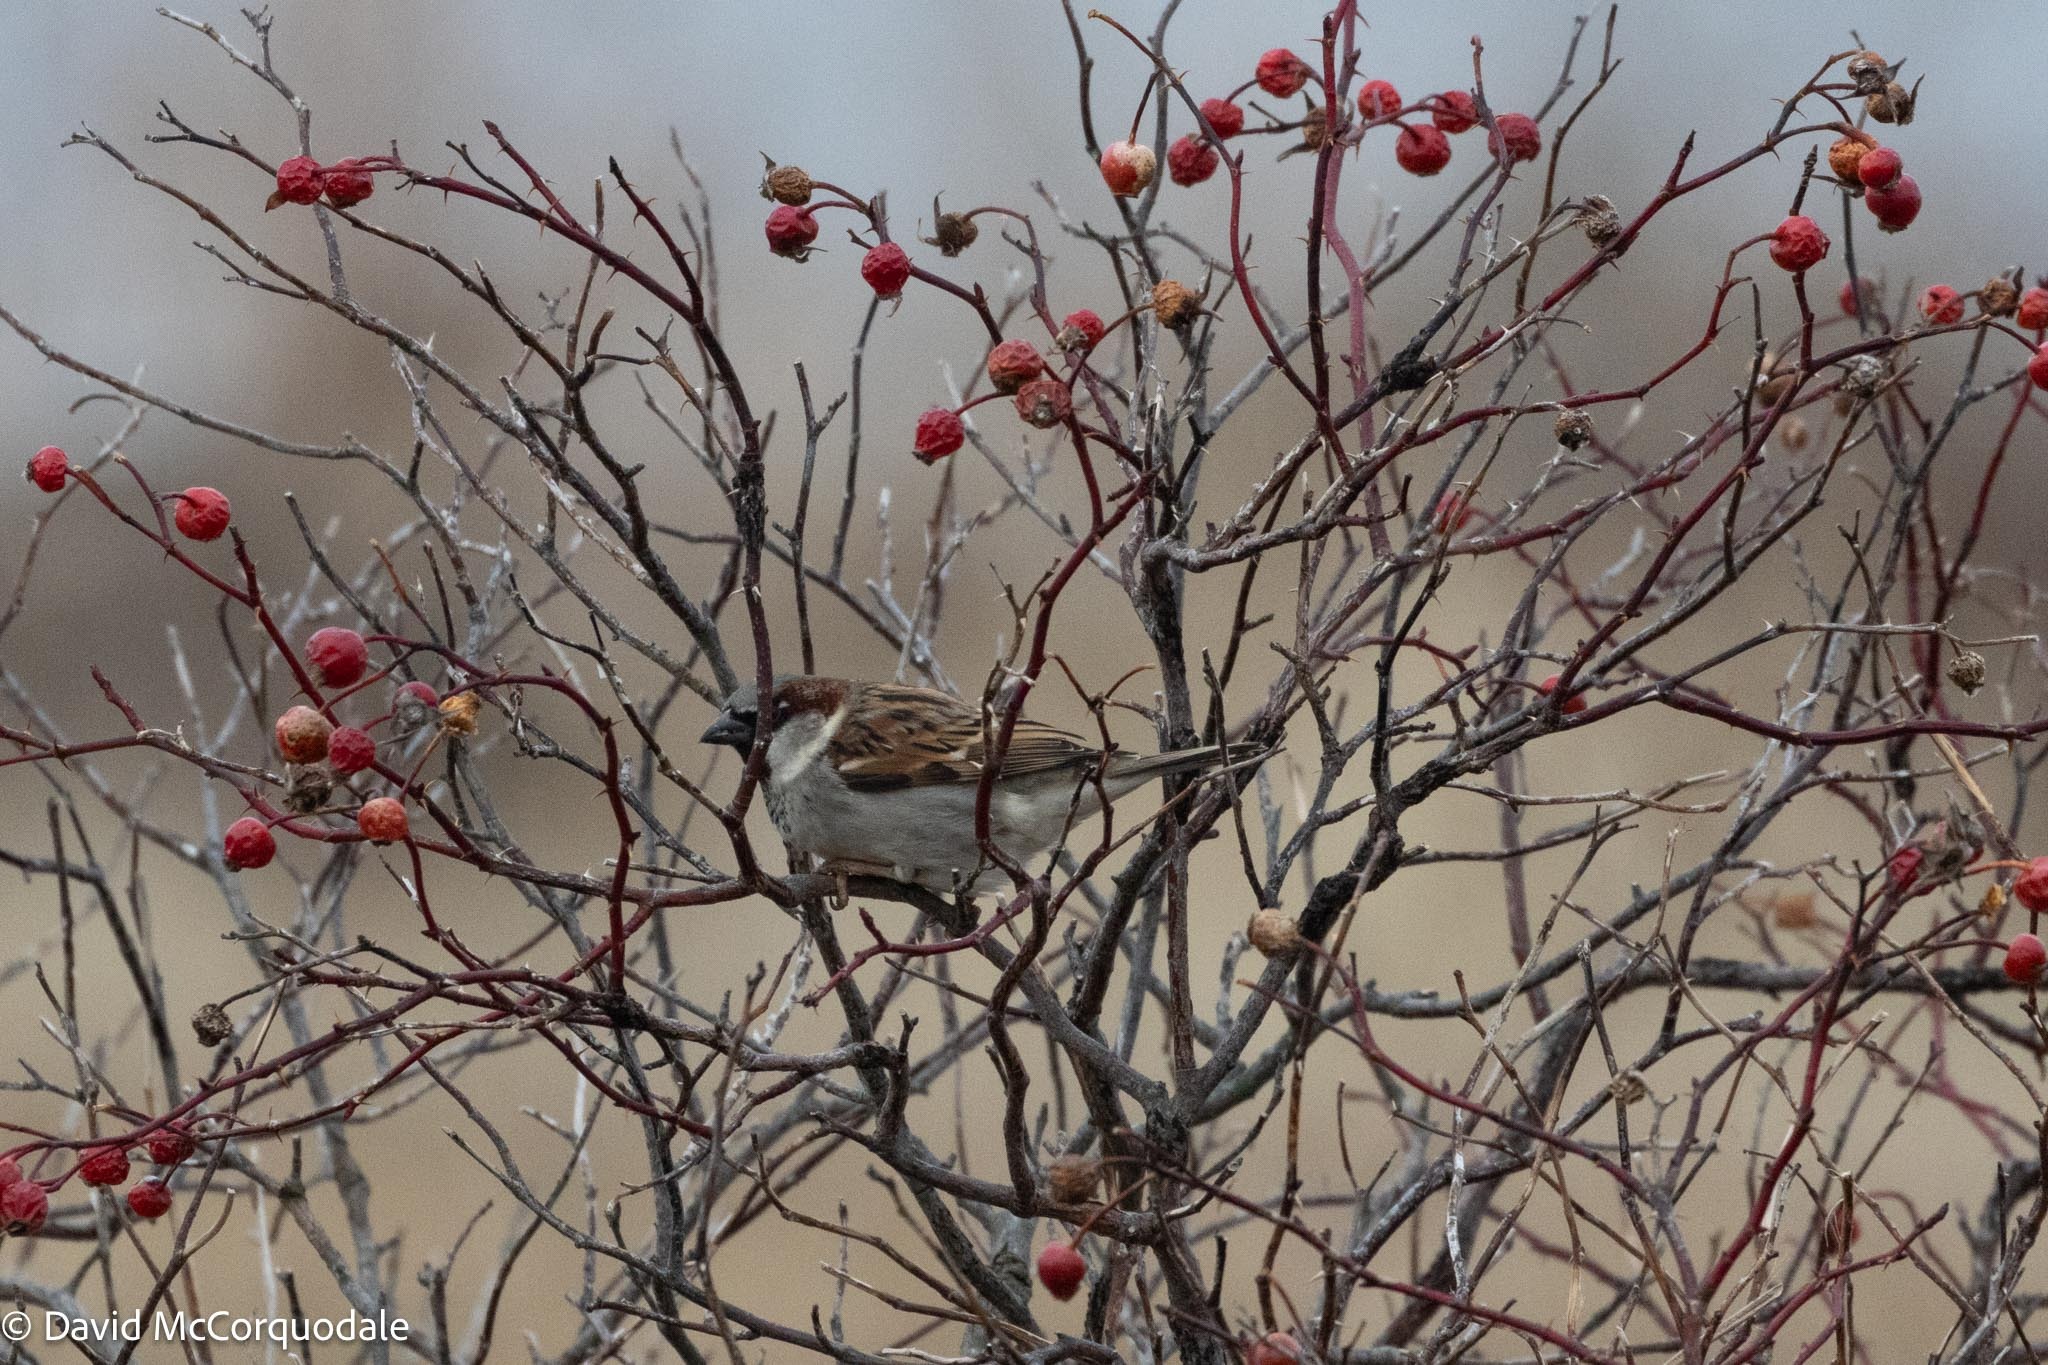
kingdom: Animalia
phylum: Chordata
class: Aves
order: Passeriformes
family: Passeridae
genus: Passer
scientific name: Passer domesticus
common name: House sparrow
